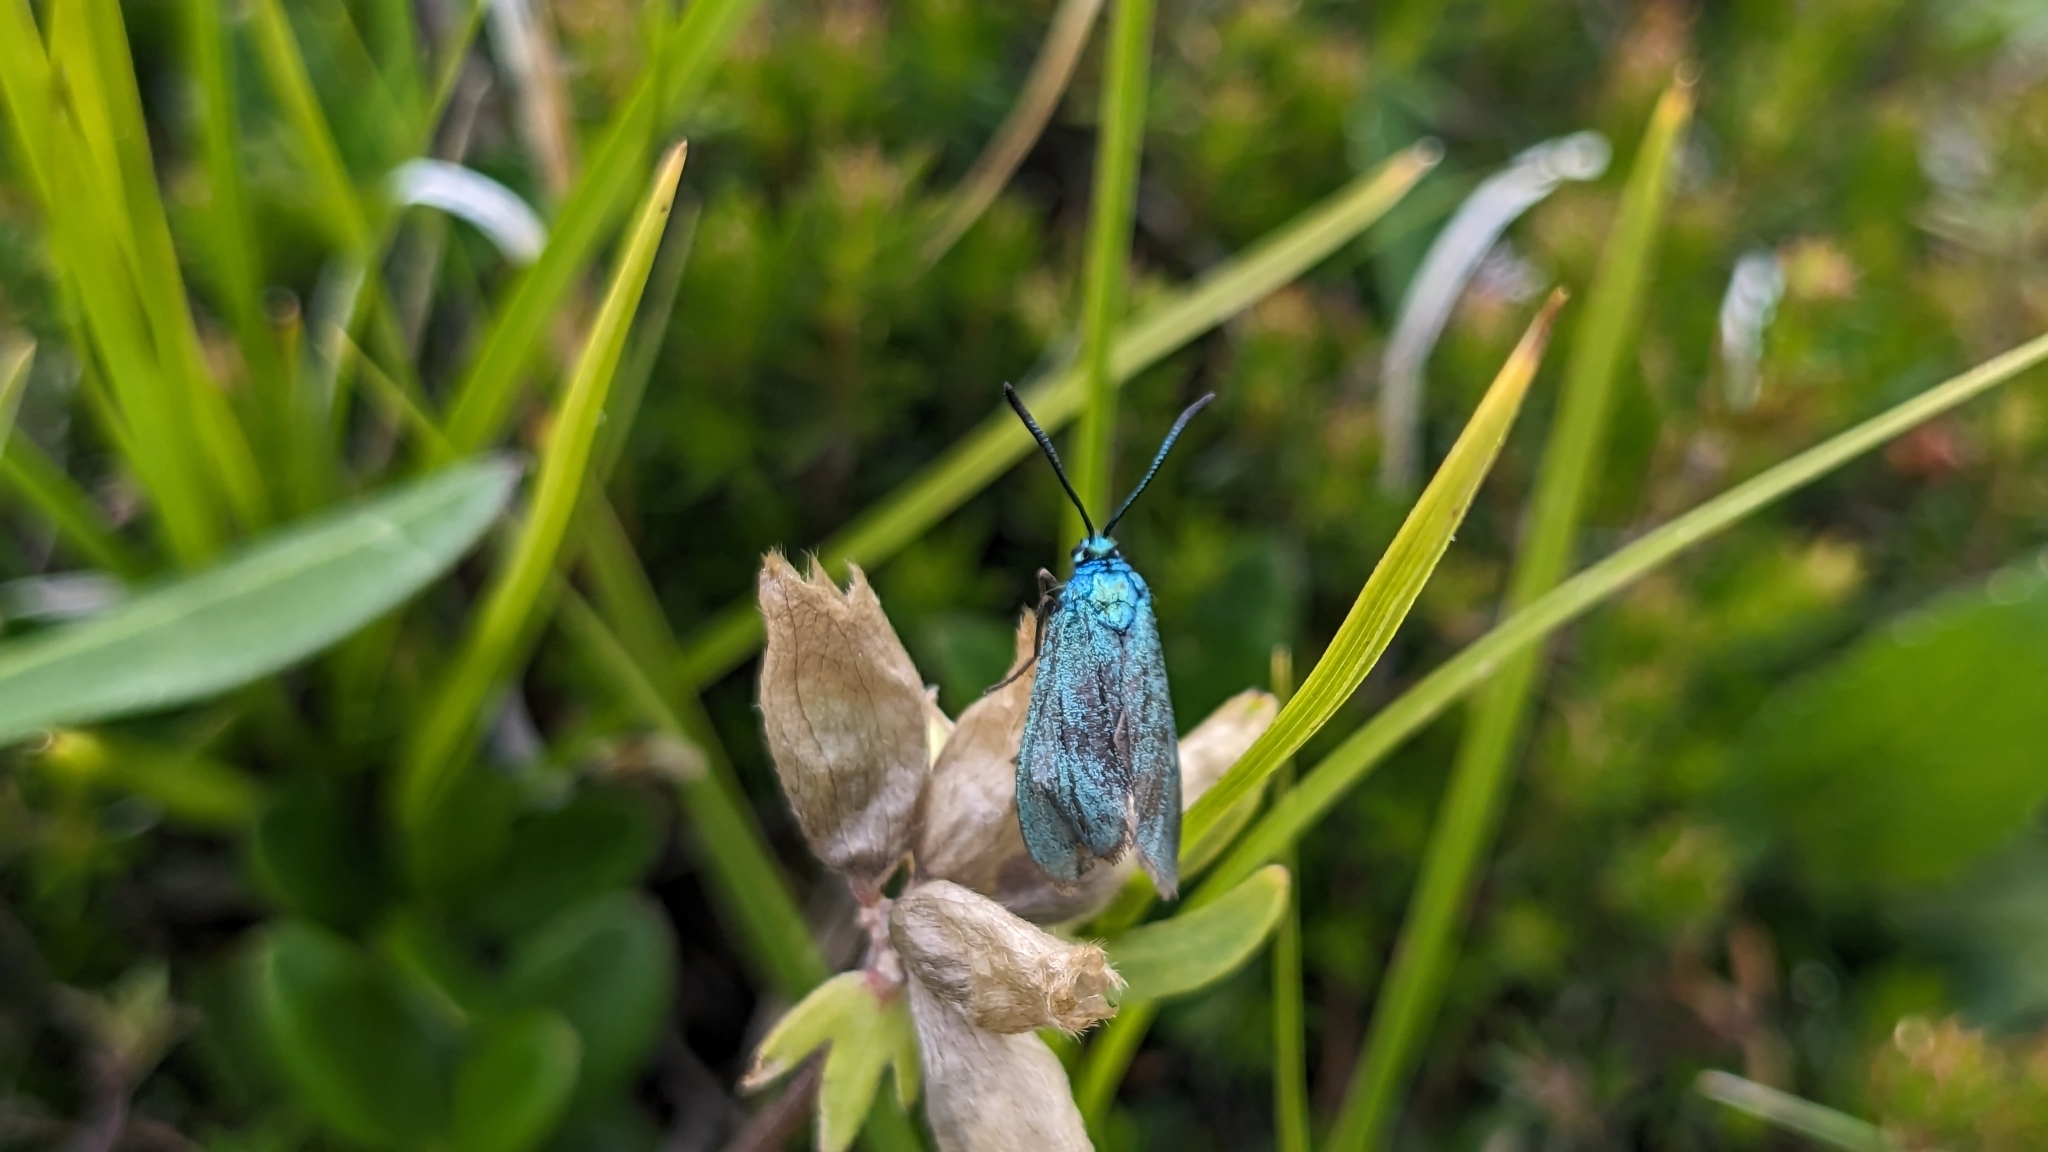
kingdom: Animalia
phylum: Arthropoda
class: Insecta
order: Lepidoptera
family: Zygaenidae
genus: Adscita
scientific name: Adscita statices
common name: Forester
